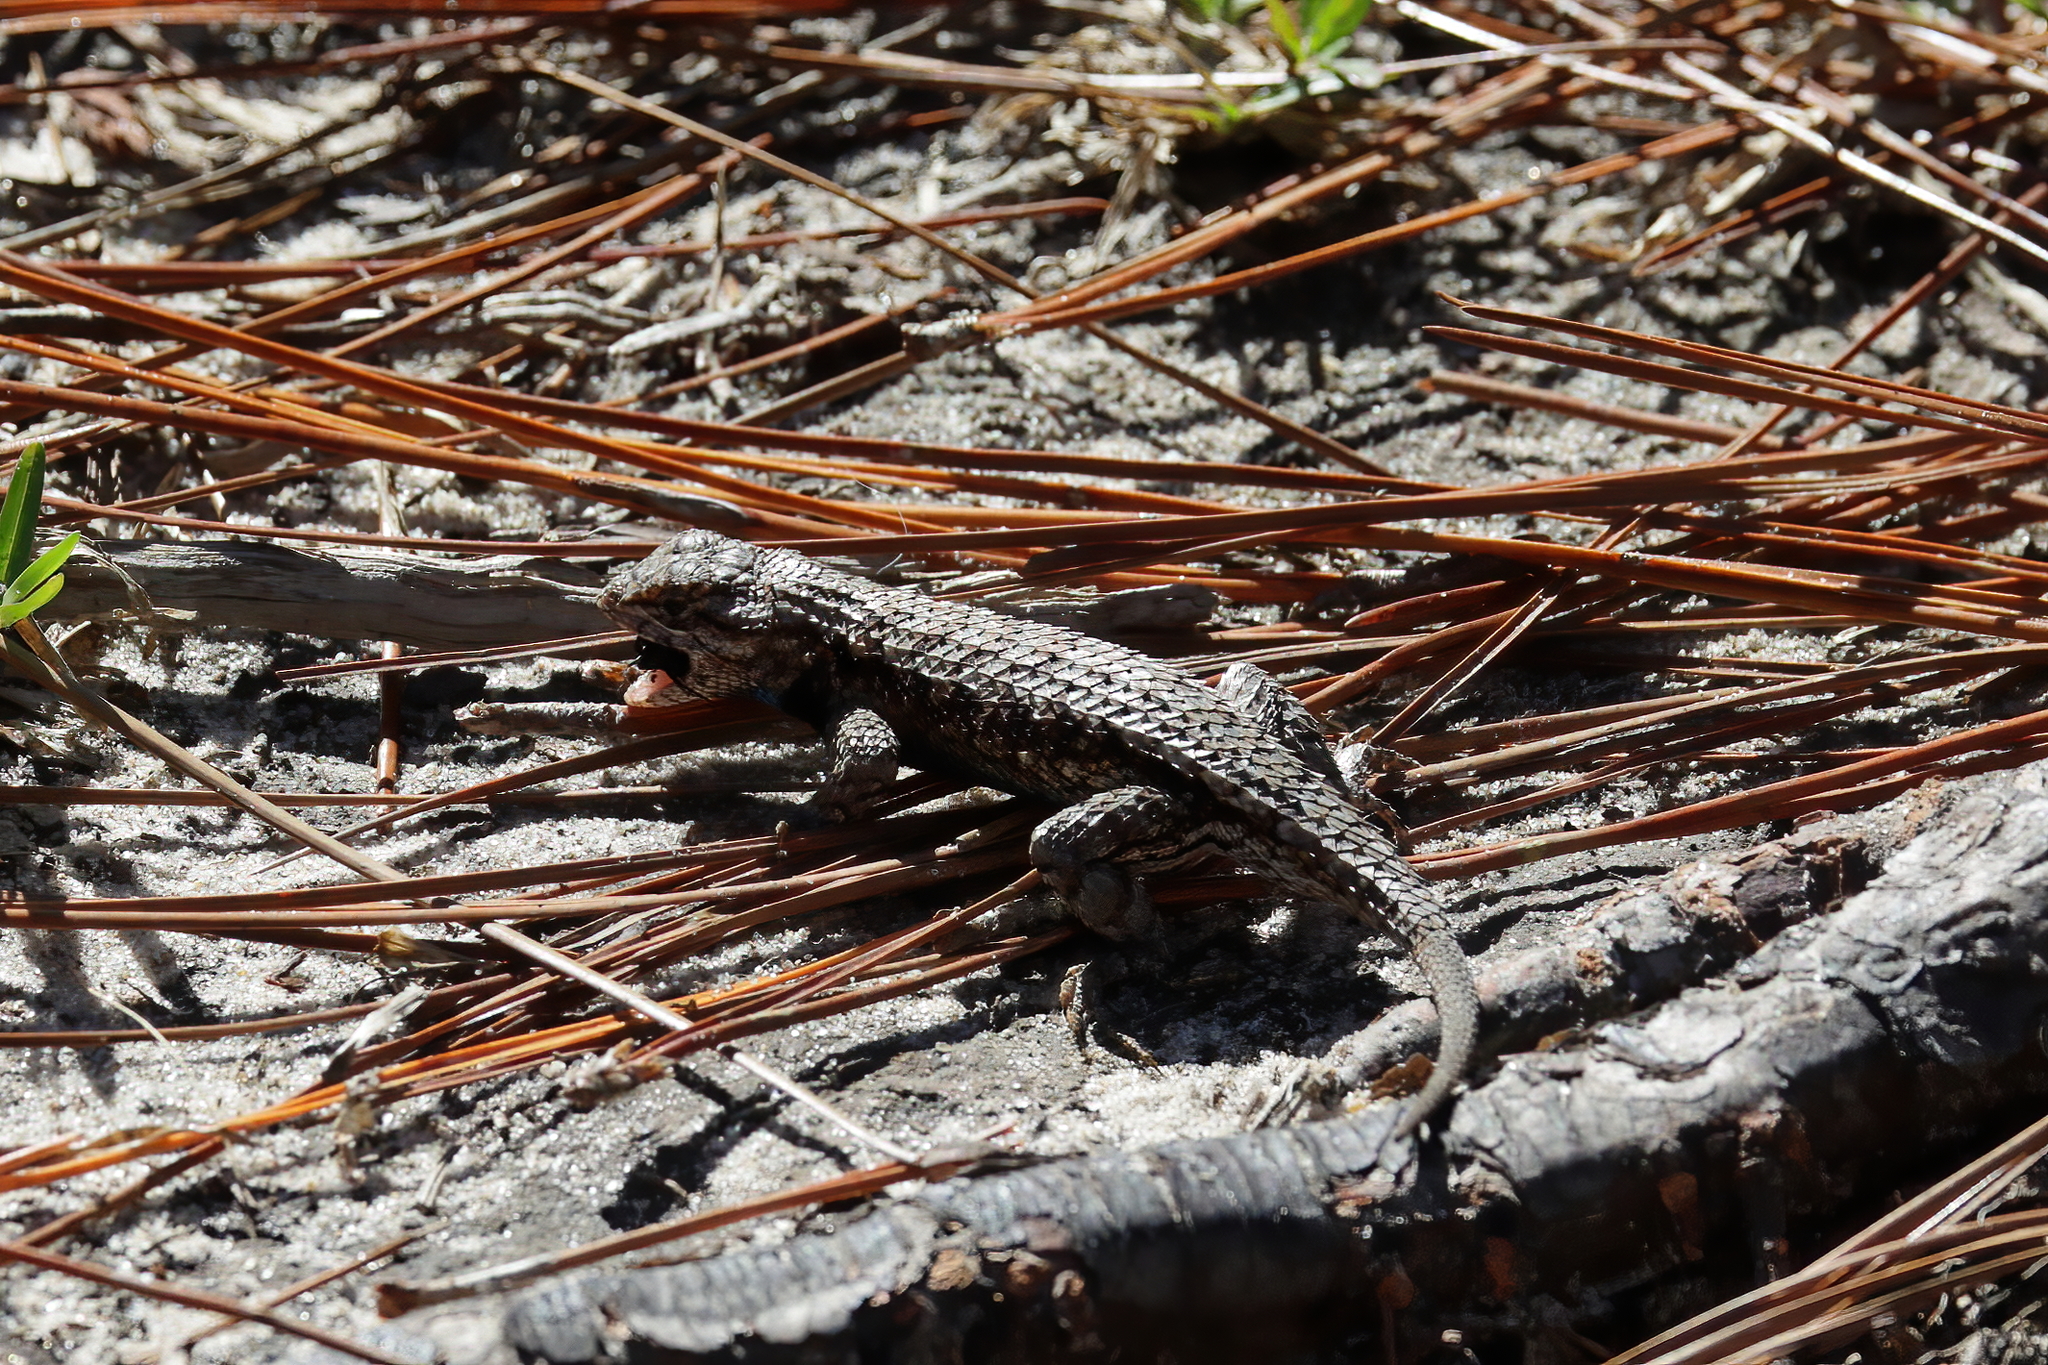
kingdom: Animalia
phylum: Chordata
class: Squamata
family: Phrynosomatidae
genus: Sceloporus
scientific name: Sceloporus undulatus
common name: Eastern fence lizard
